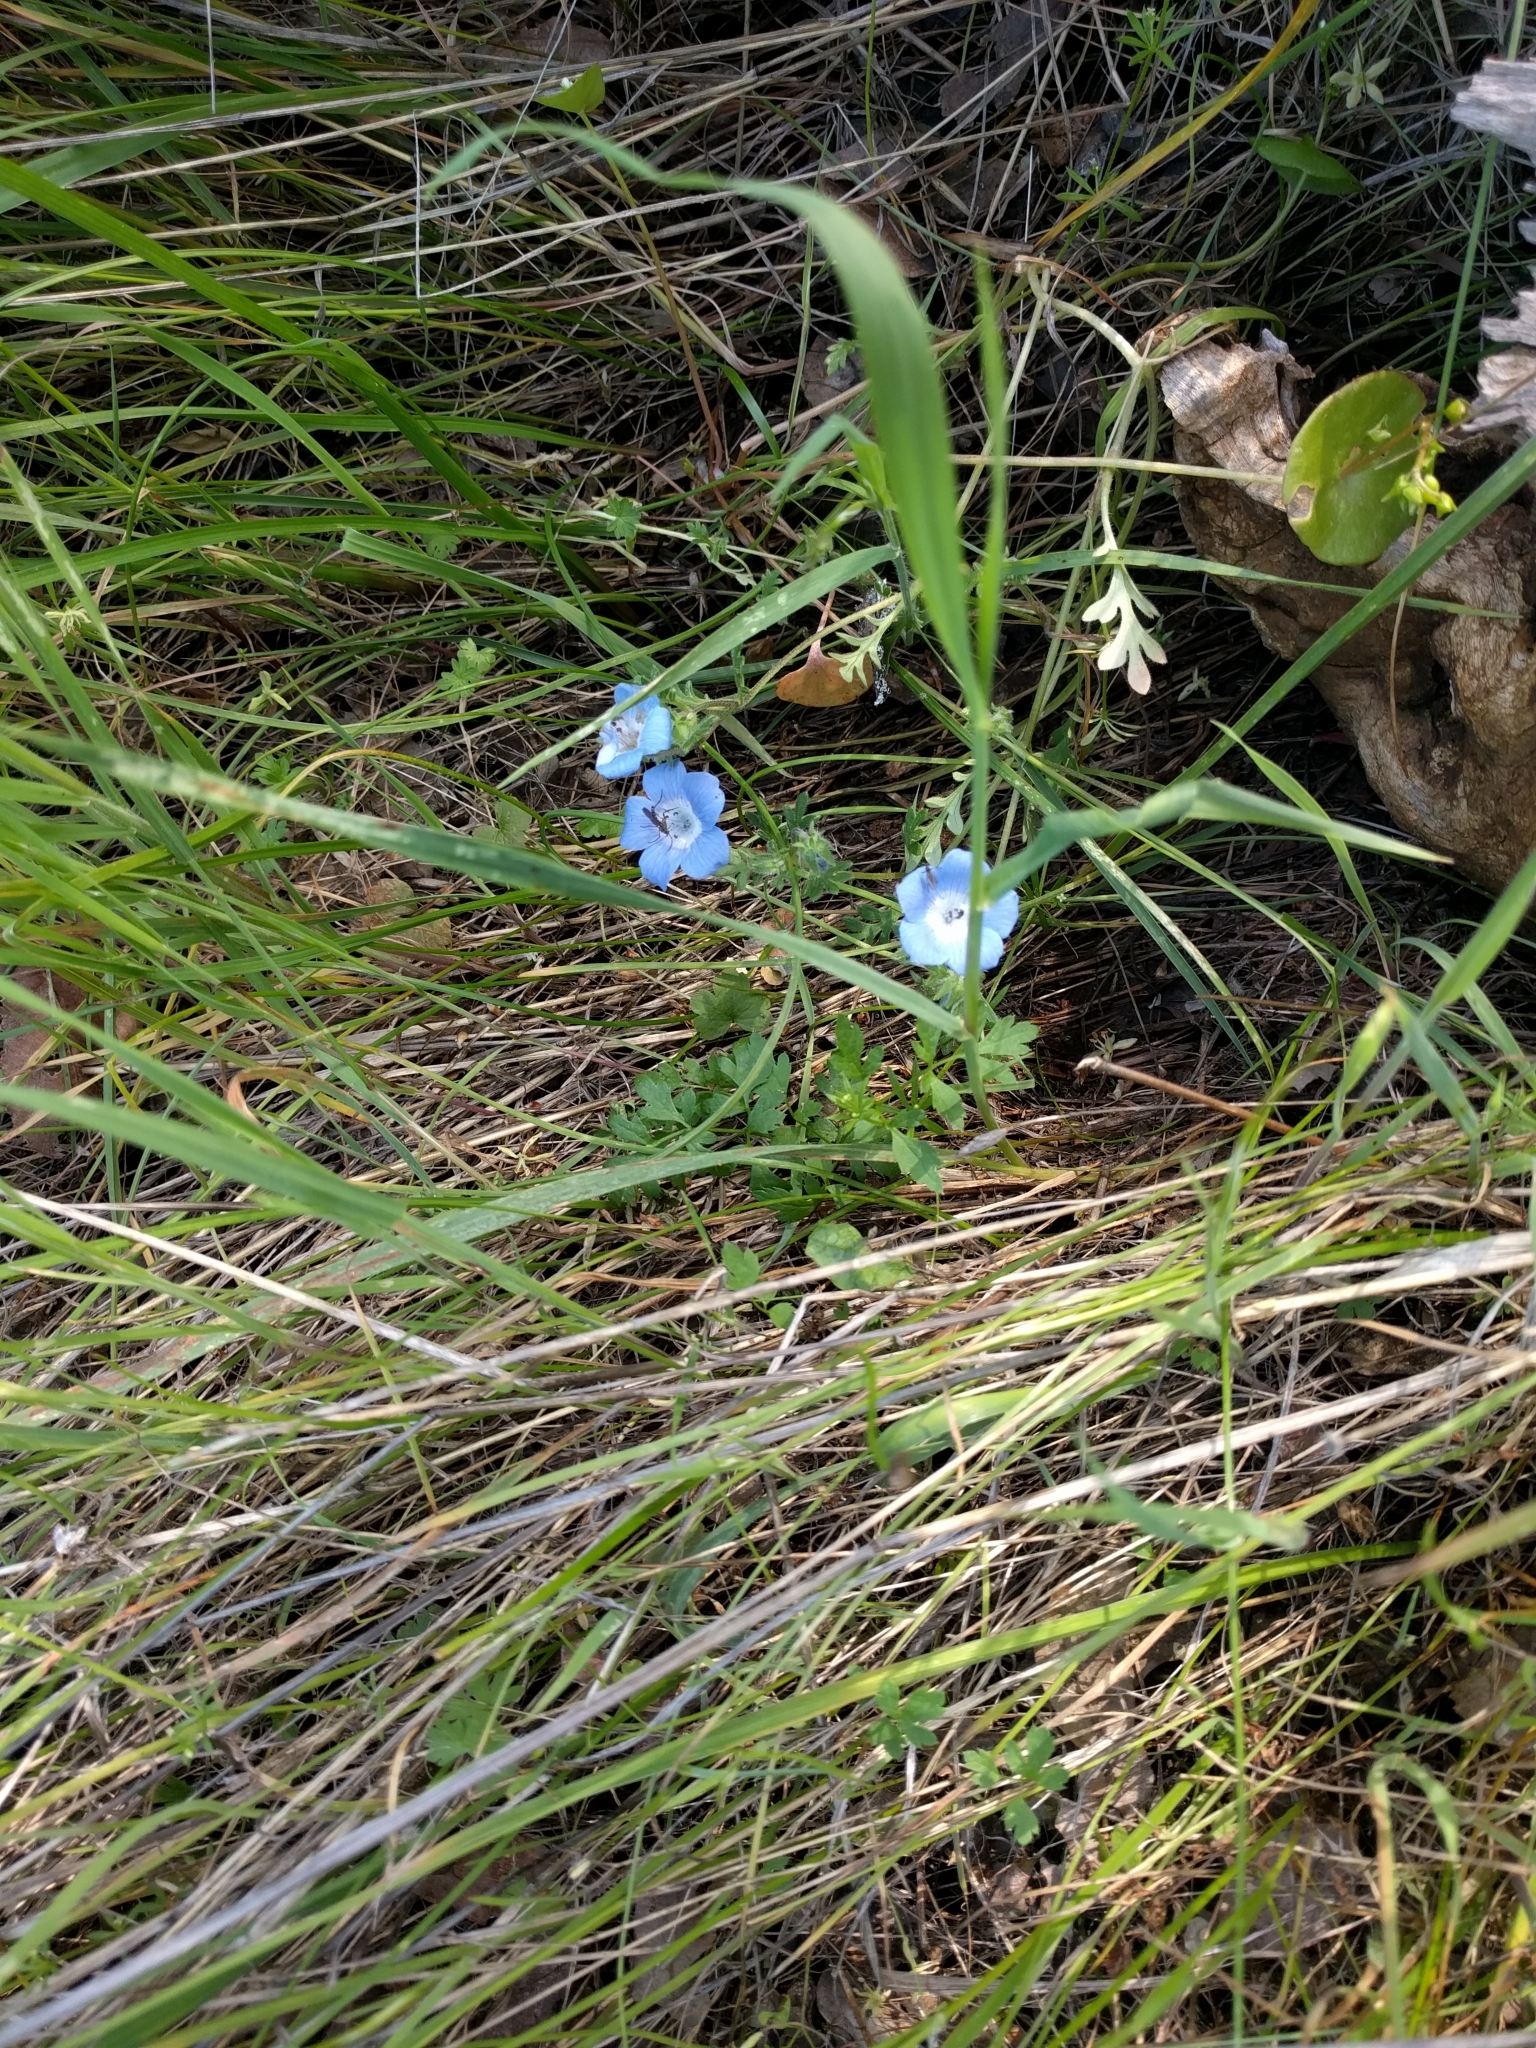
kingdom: Plantae
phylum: Tracheophyta
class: Magnoliopsida
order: Boraginales
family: Hydrophyllaceae
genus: Nemophila
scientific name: Nemophila menziesii
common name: Baby's-blue-eyes
